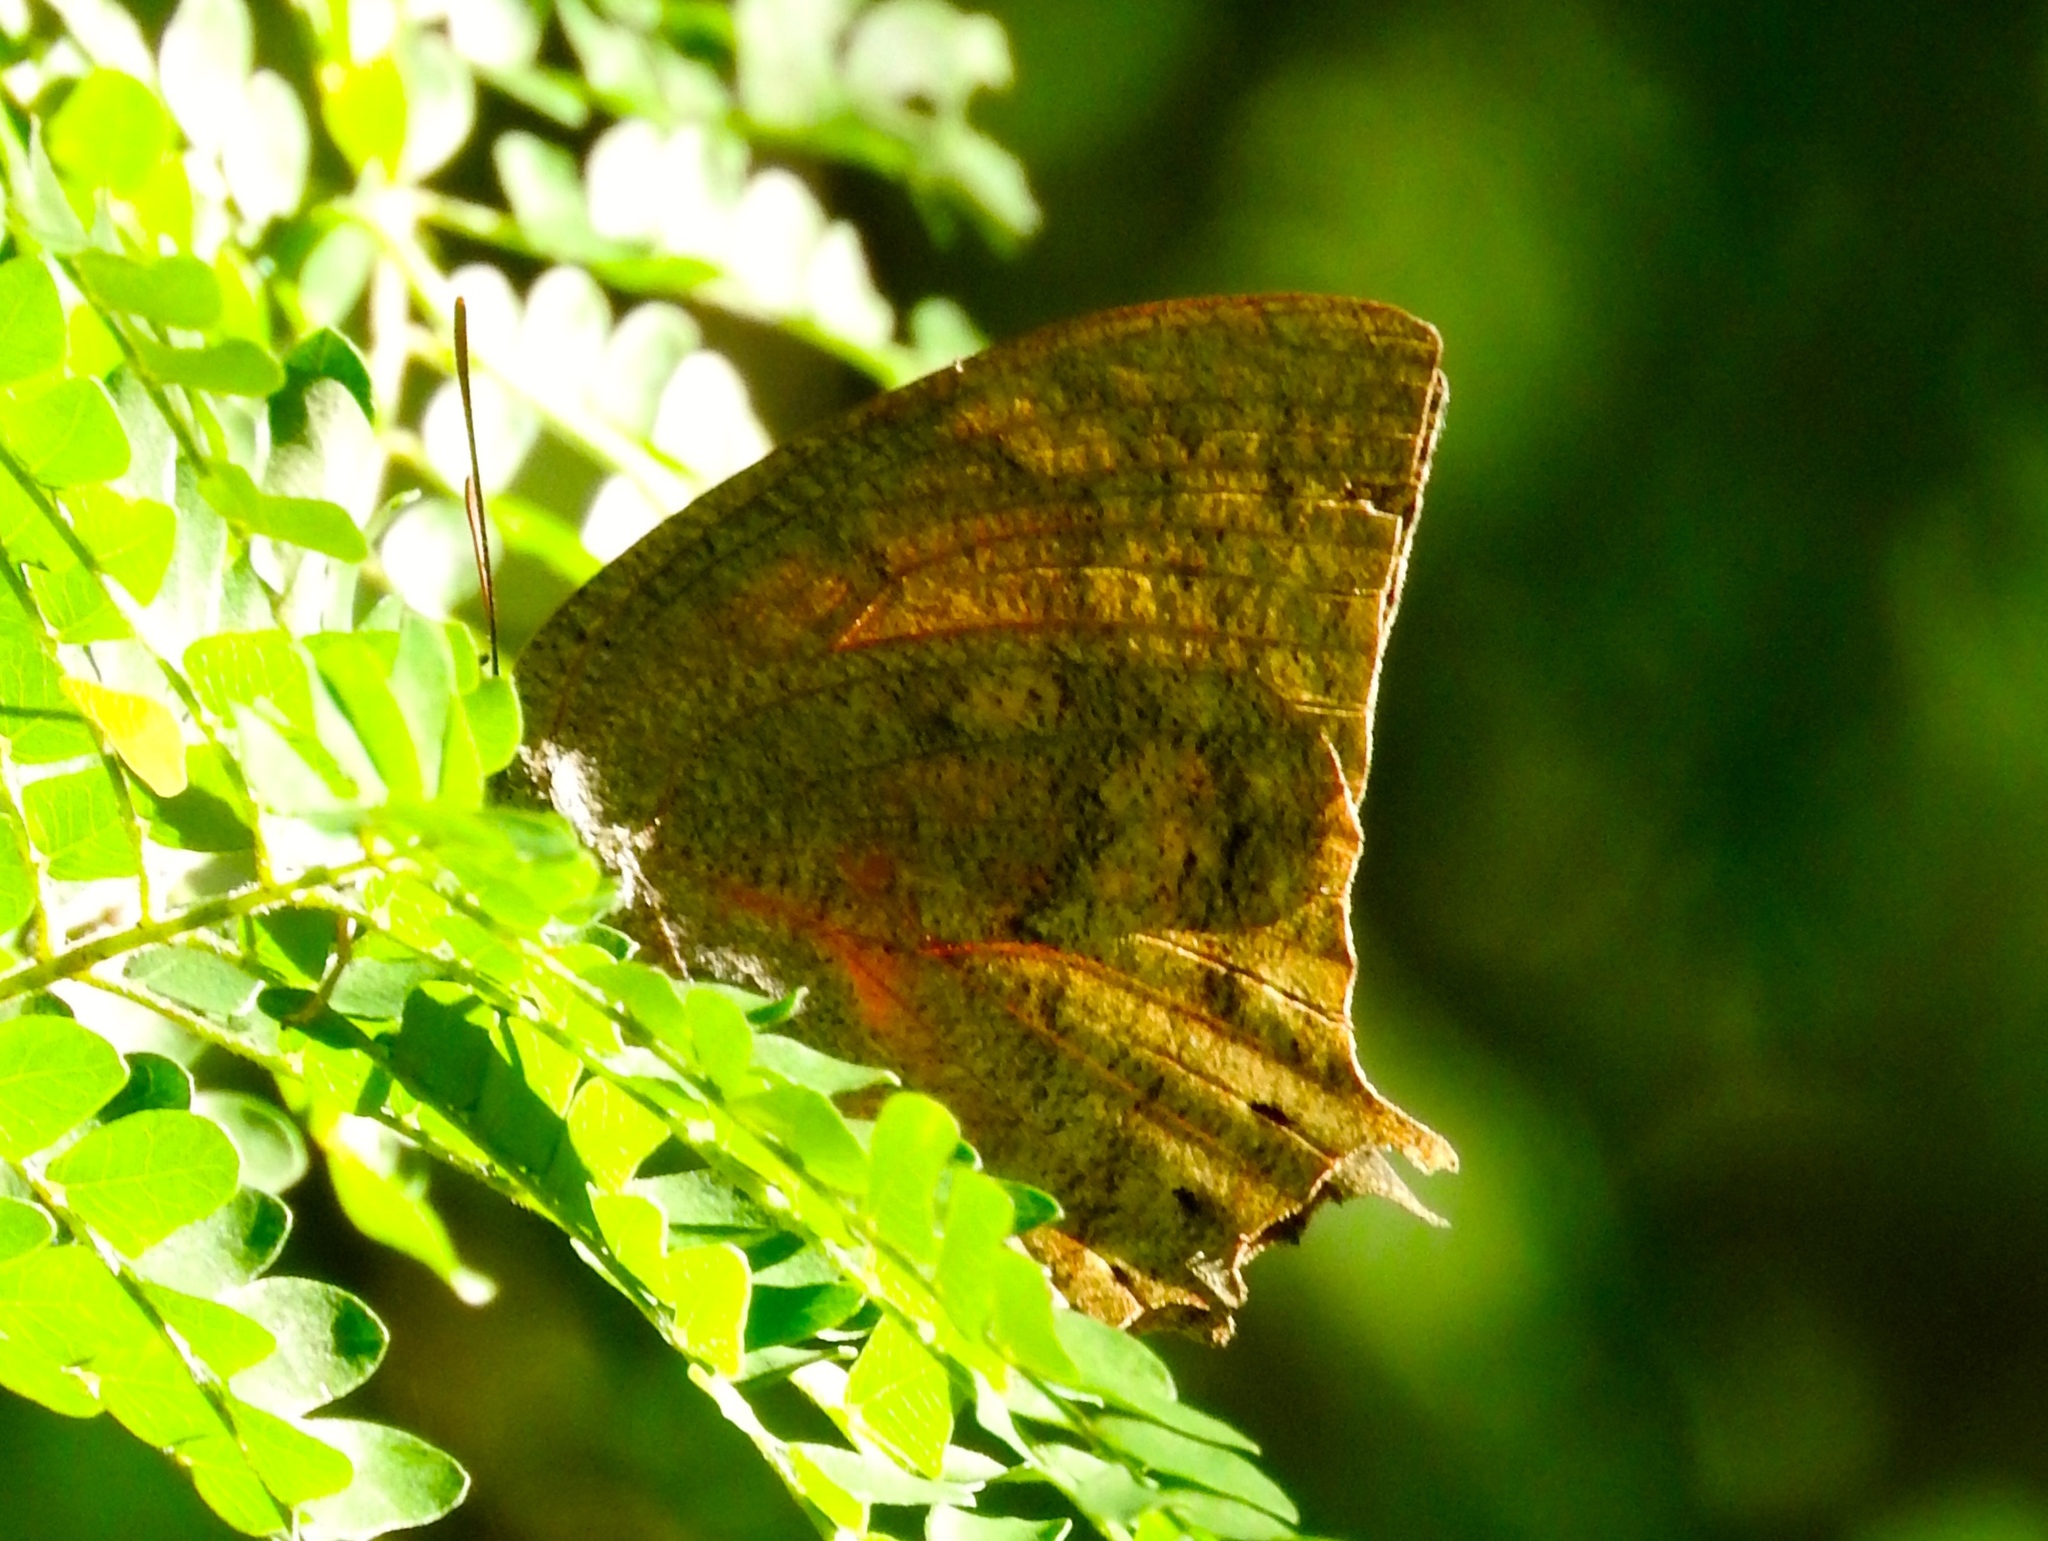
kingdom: Animalia
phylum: Arthropoda
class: Insecta
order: Lepidoptera
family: Nymphalidae
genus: Anaea
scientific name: Anaea aidea
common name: Tropical leafwing
